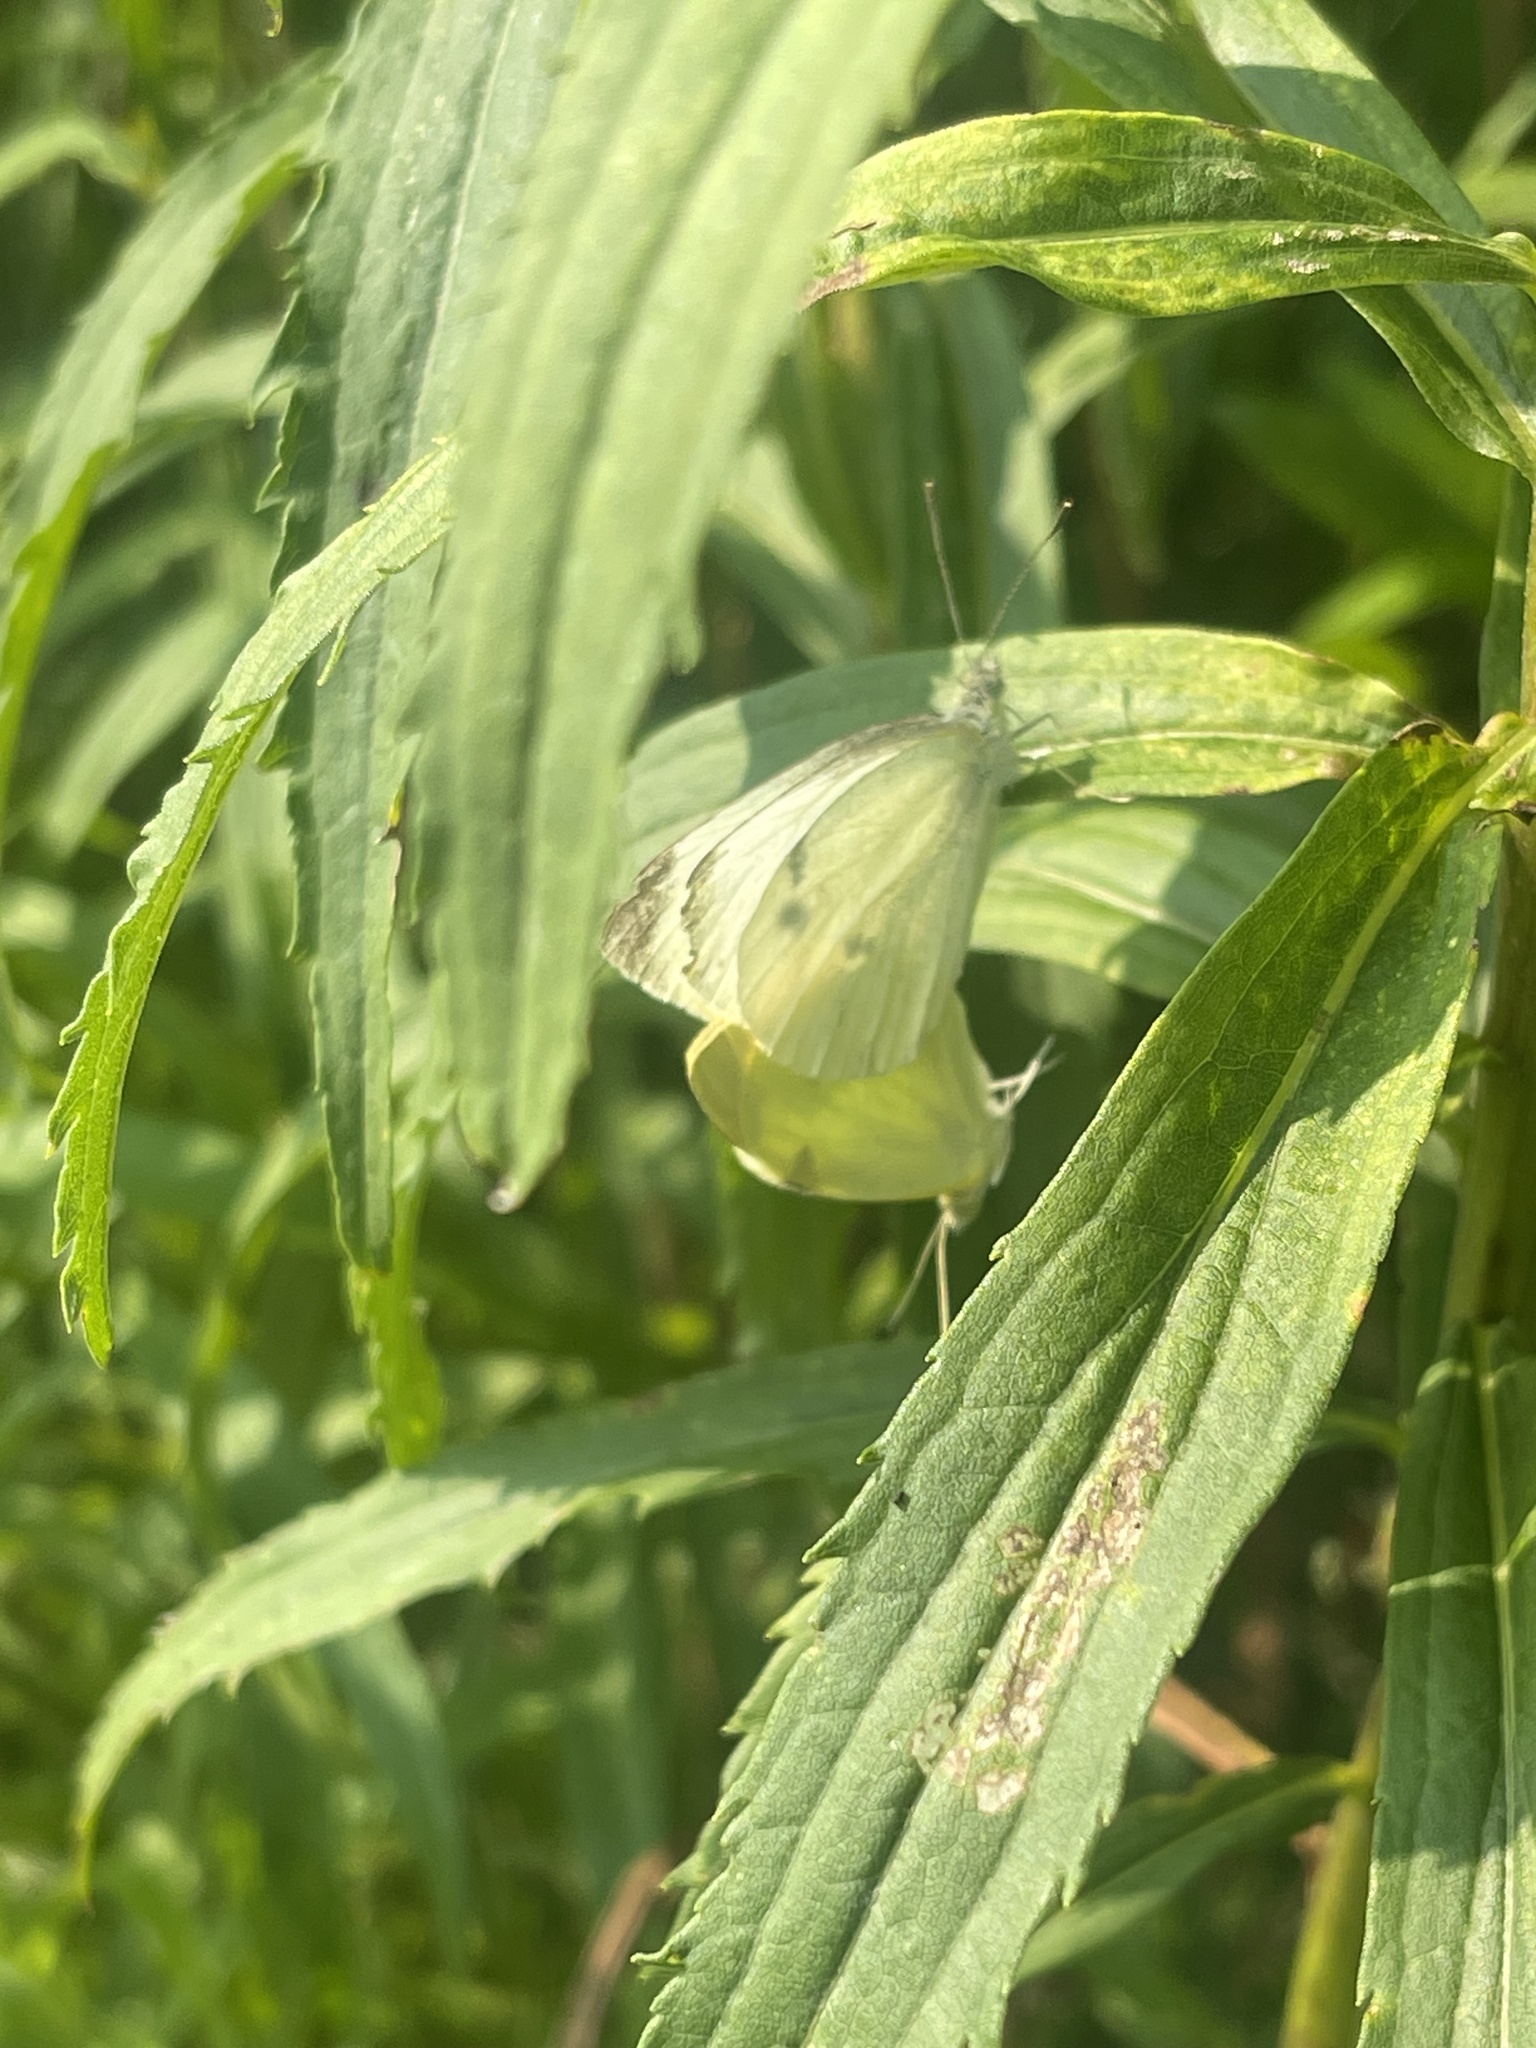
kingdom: Animalia
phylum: Arthropoda
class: Insecta
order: Lepidoptera
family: Pieridae
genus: Pieris
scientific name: Pieris rapae
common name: Small white
